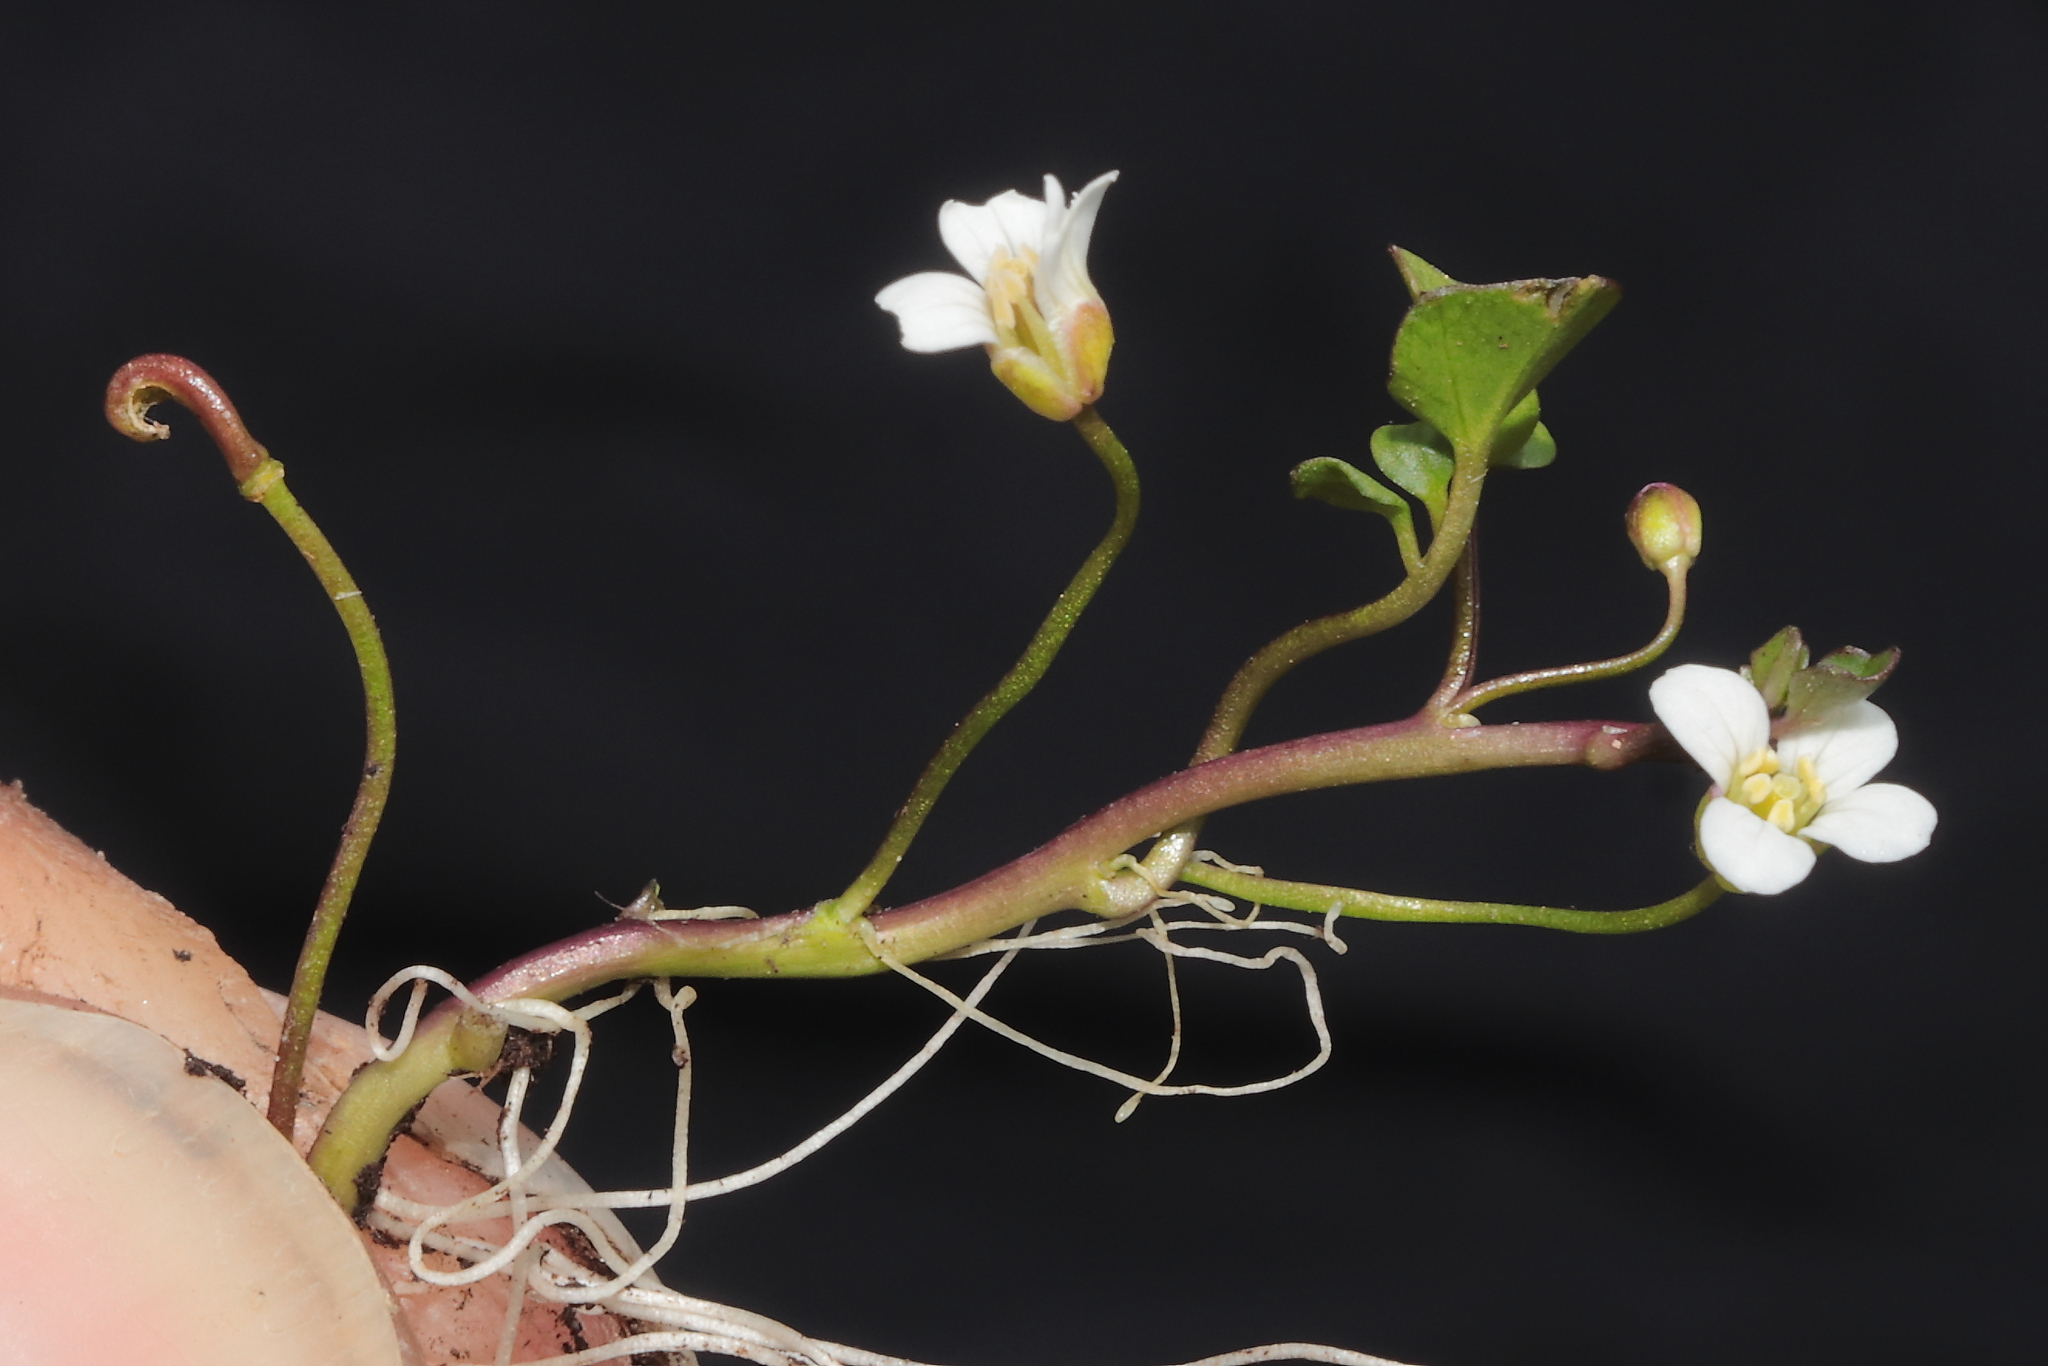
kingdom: Plantae
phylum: Tracheophyta
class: Magnoliopsida
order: Brassicales
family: Brassicaceae
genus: Cardamine
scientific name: Cardamine bonariensis
